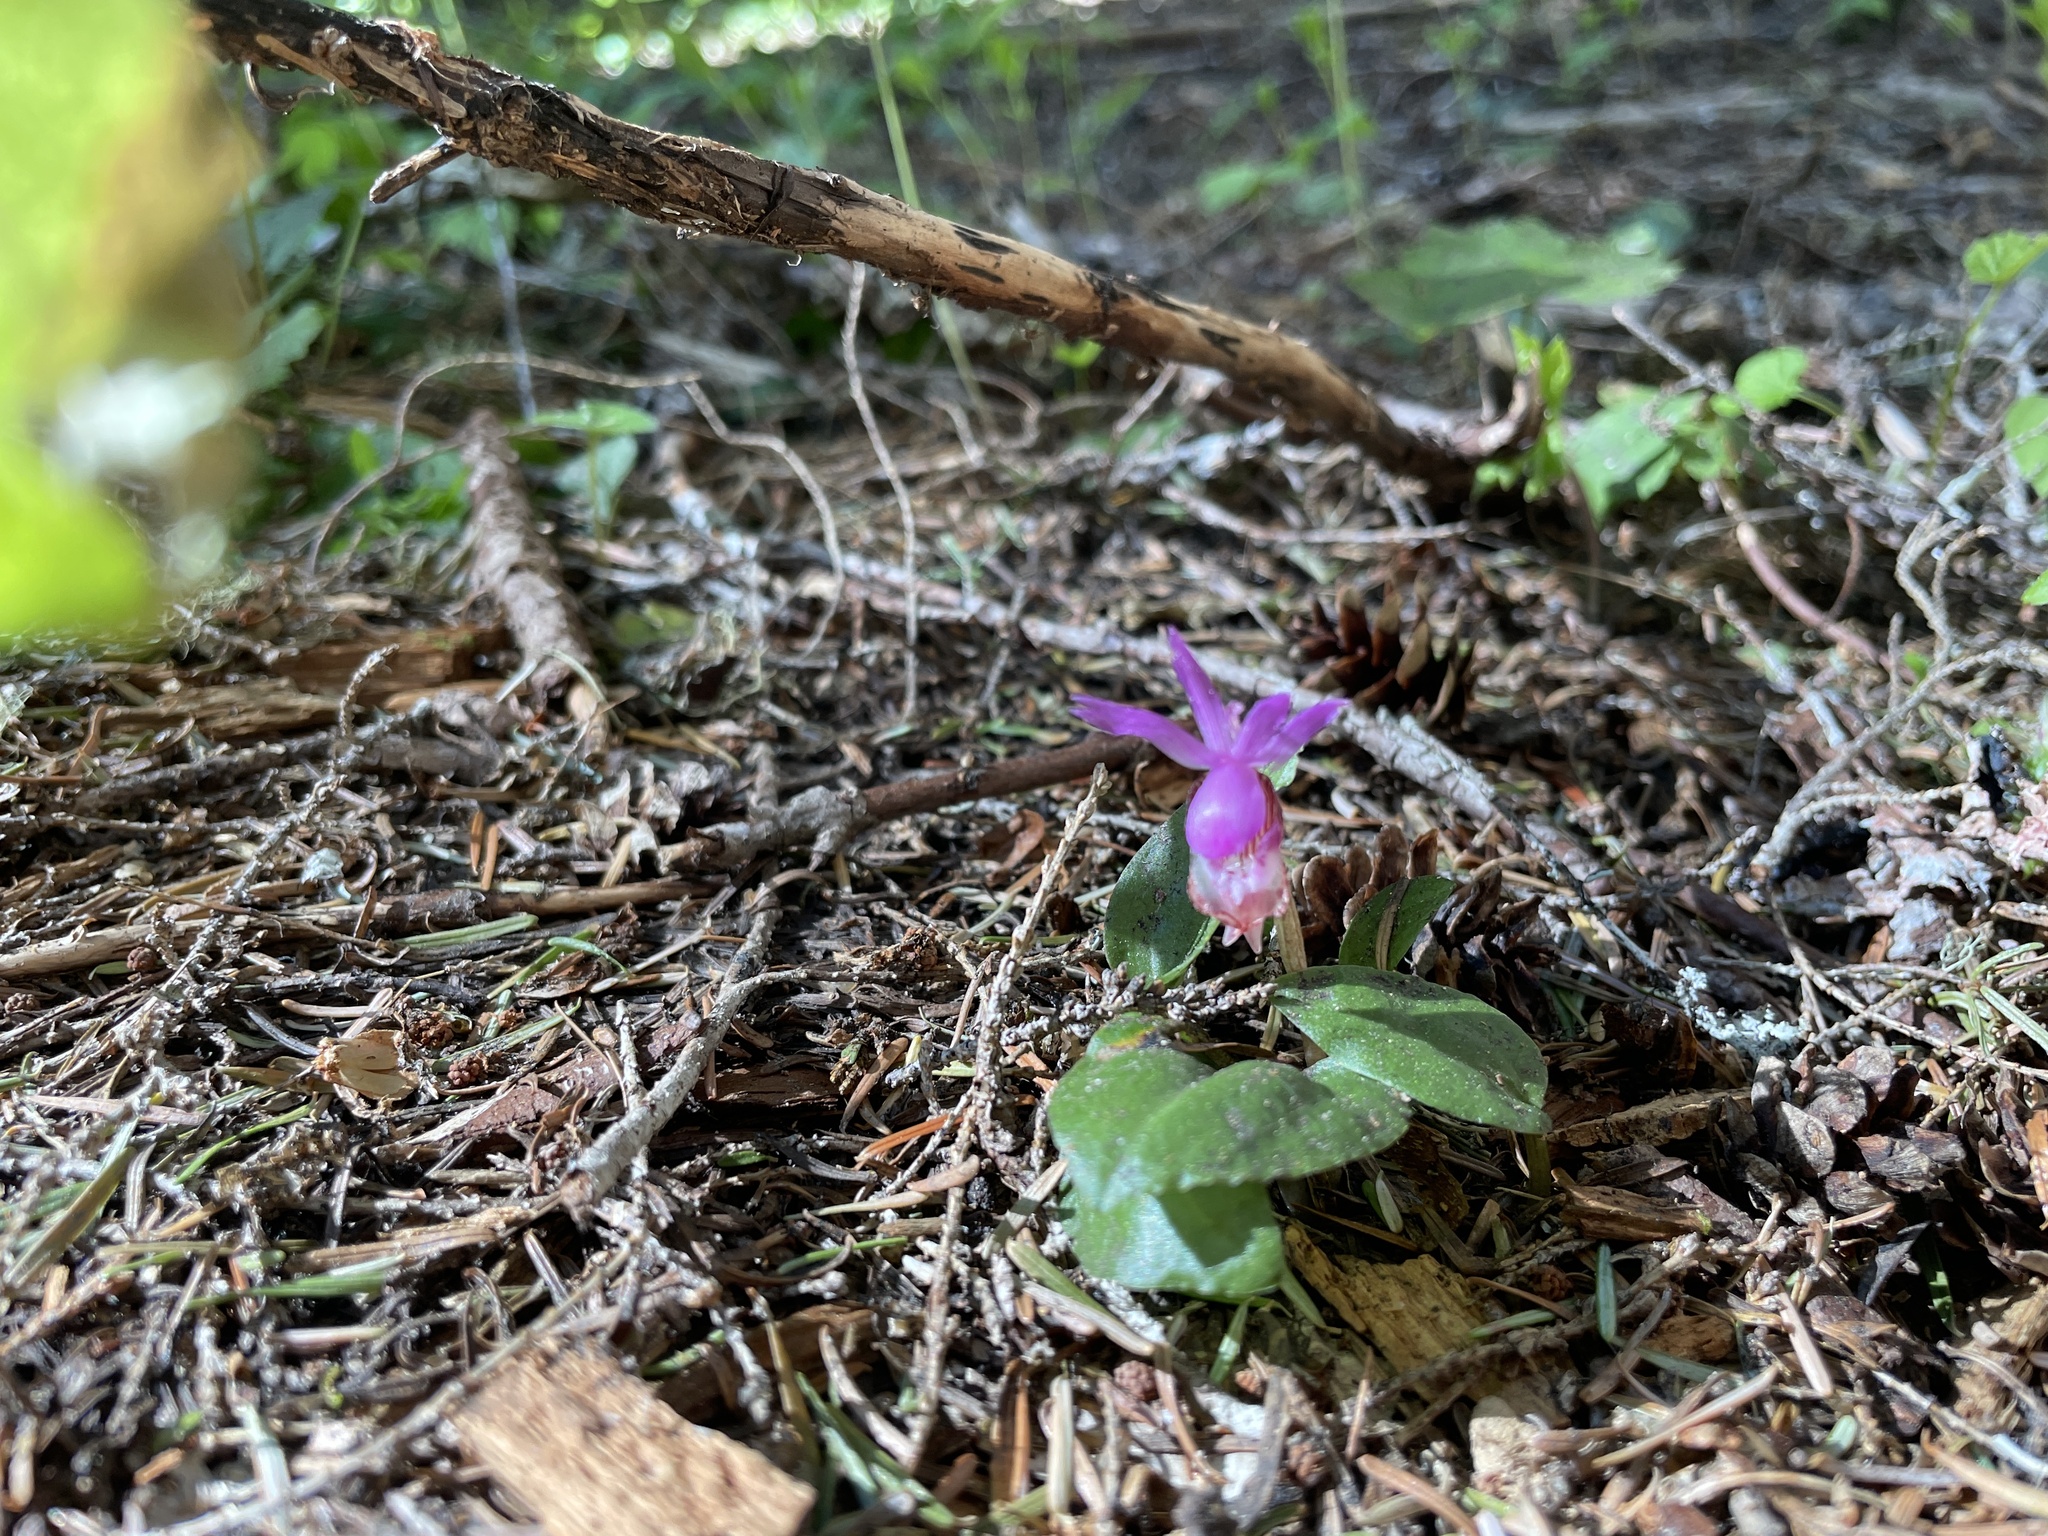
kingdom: Plantae
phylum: Tracheophyta
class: Liliopsida
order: Asparagales
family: Orchidaceae
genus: Calypso
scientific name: Calypso bulbosa
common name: Calypso
